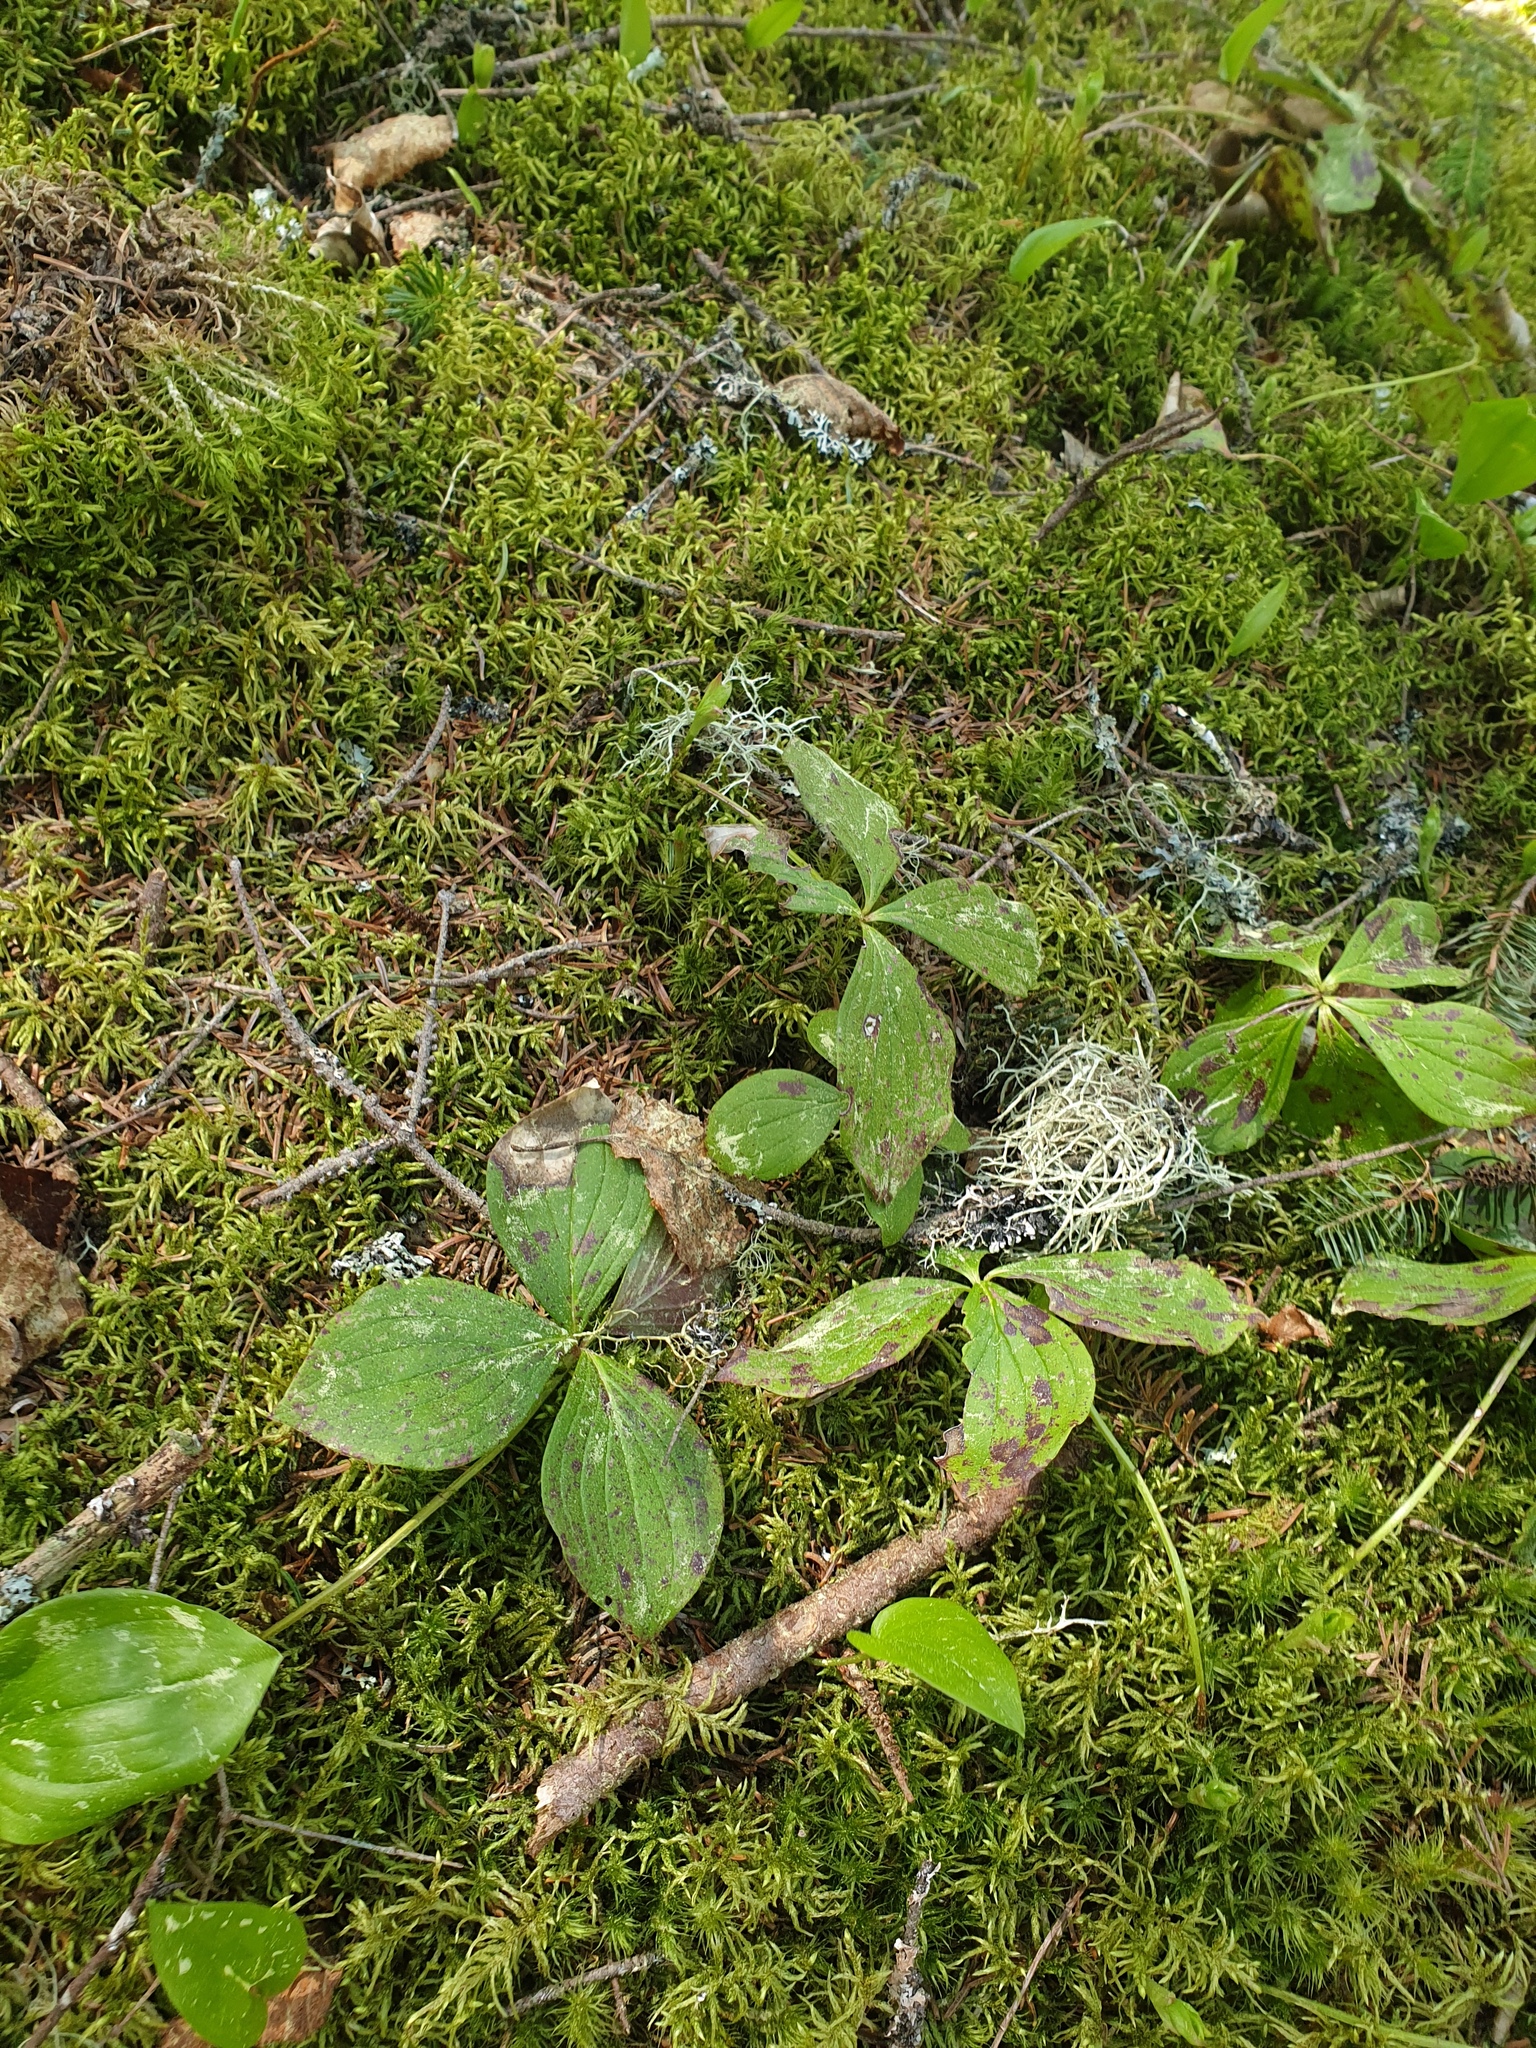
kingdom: Plantae
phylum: Bryophyta
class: Bryopsida
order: Hypnales
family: Hylocomiaceae
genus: Pleurozium
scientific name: Pleurozium schreberi
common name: Red-stemmed feather moss
